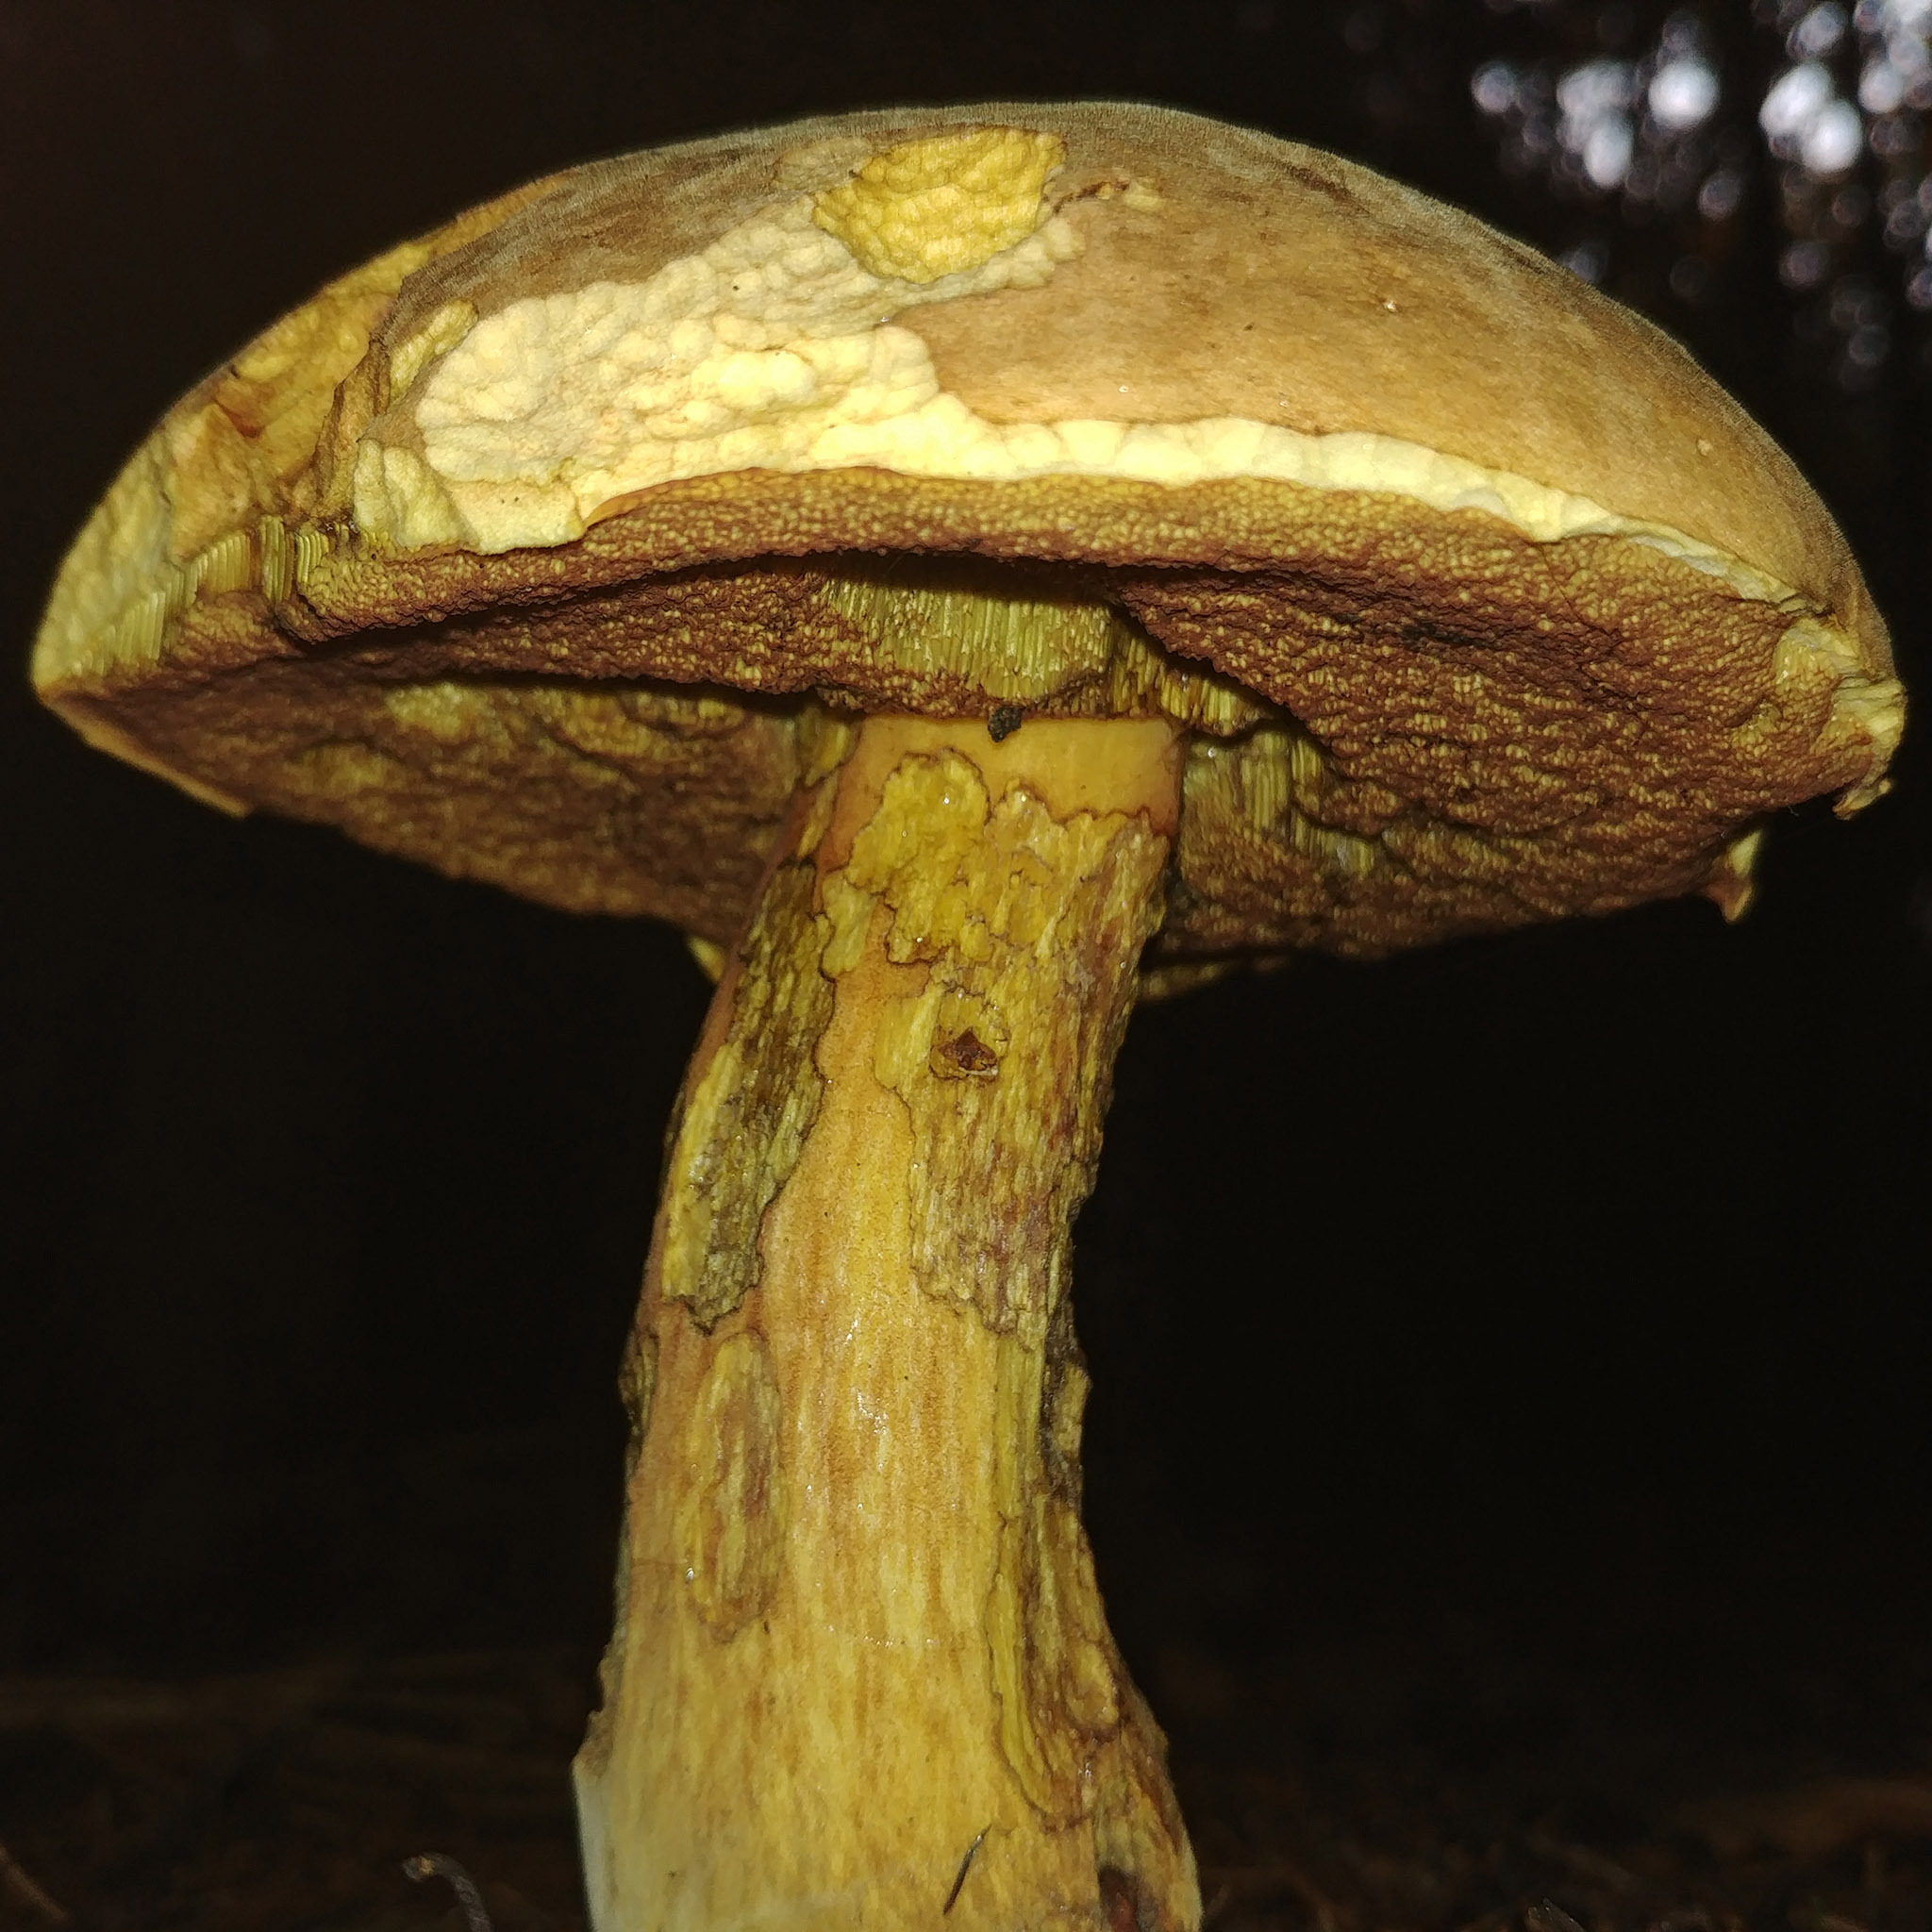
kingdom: Fungi
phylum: Basidiomycota
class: Agaricomycetes
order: Boletales
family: Boletaceae
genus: Neoboletus
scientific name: Neoboletus xanthopus
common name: False yellow bolete
